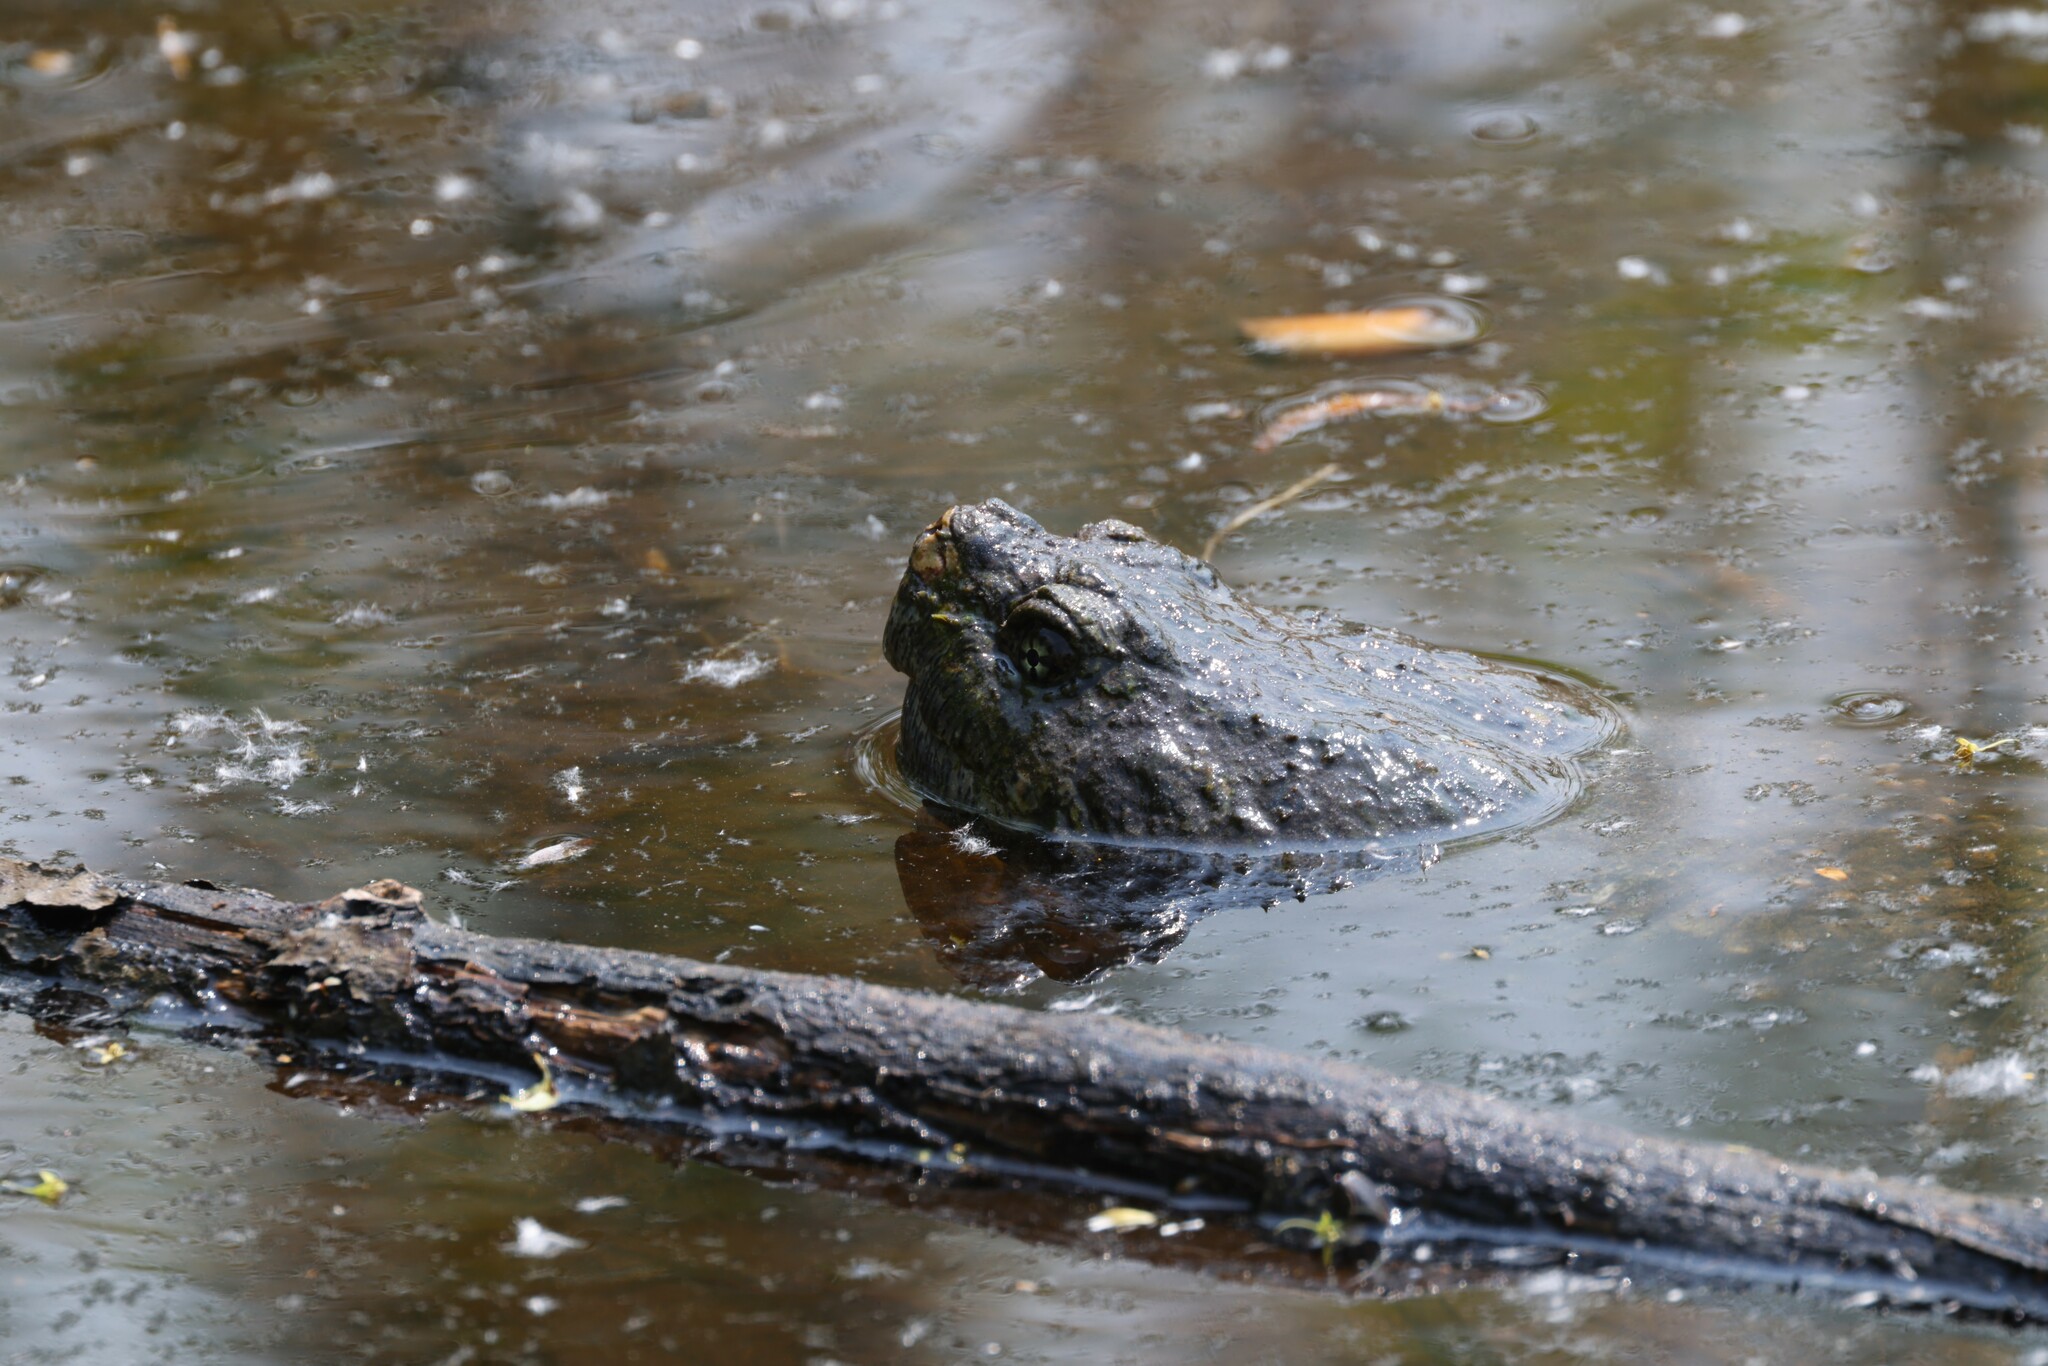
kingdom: Animalia
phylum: Chordata
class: Testudines
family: Chelydridae
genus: Chelydra
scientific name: Chelydra serpentina
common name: Common snapping turtle
